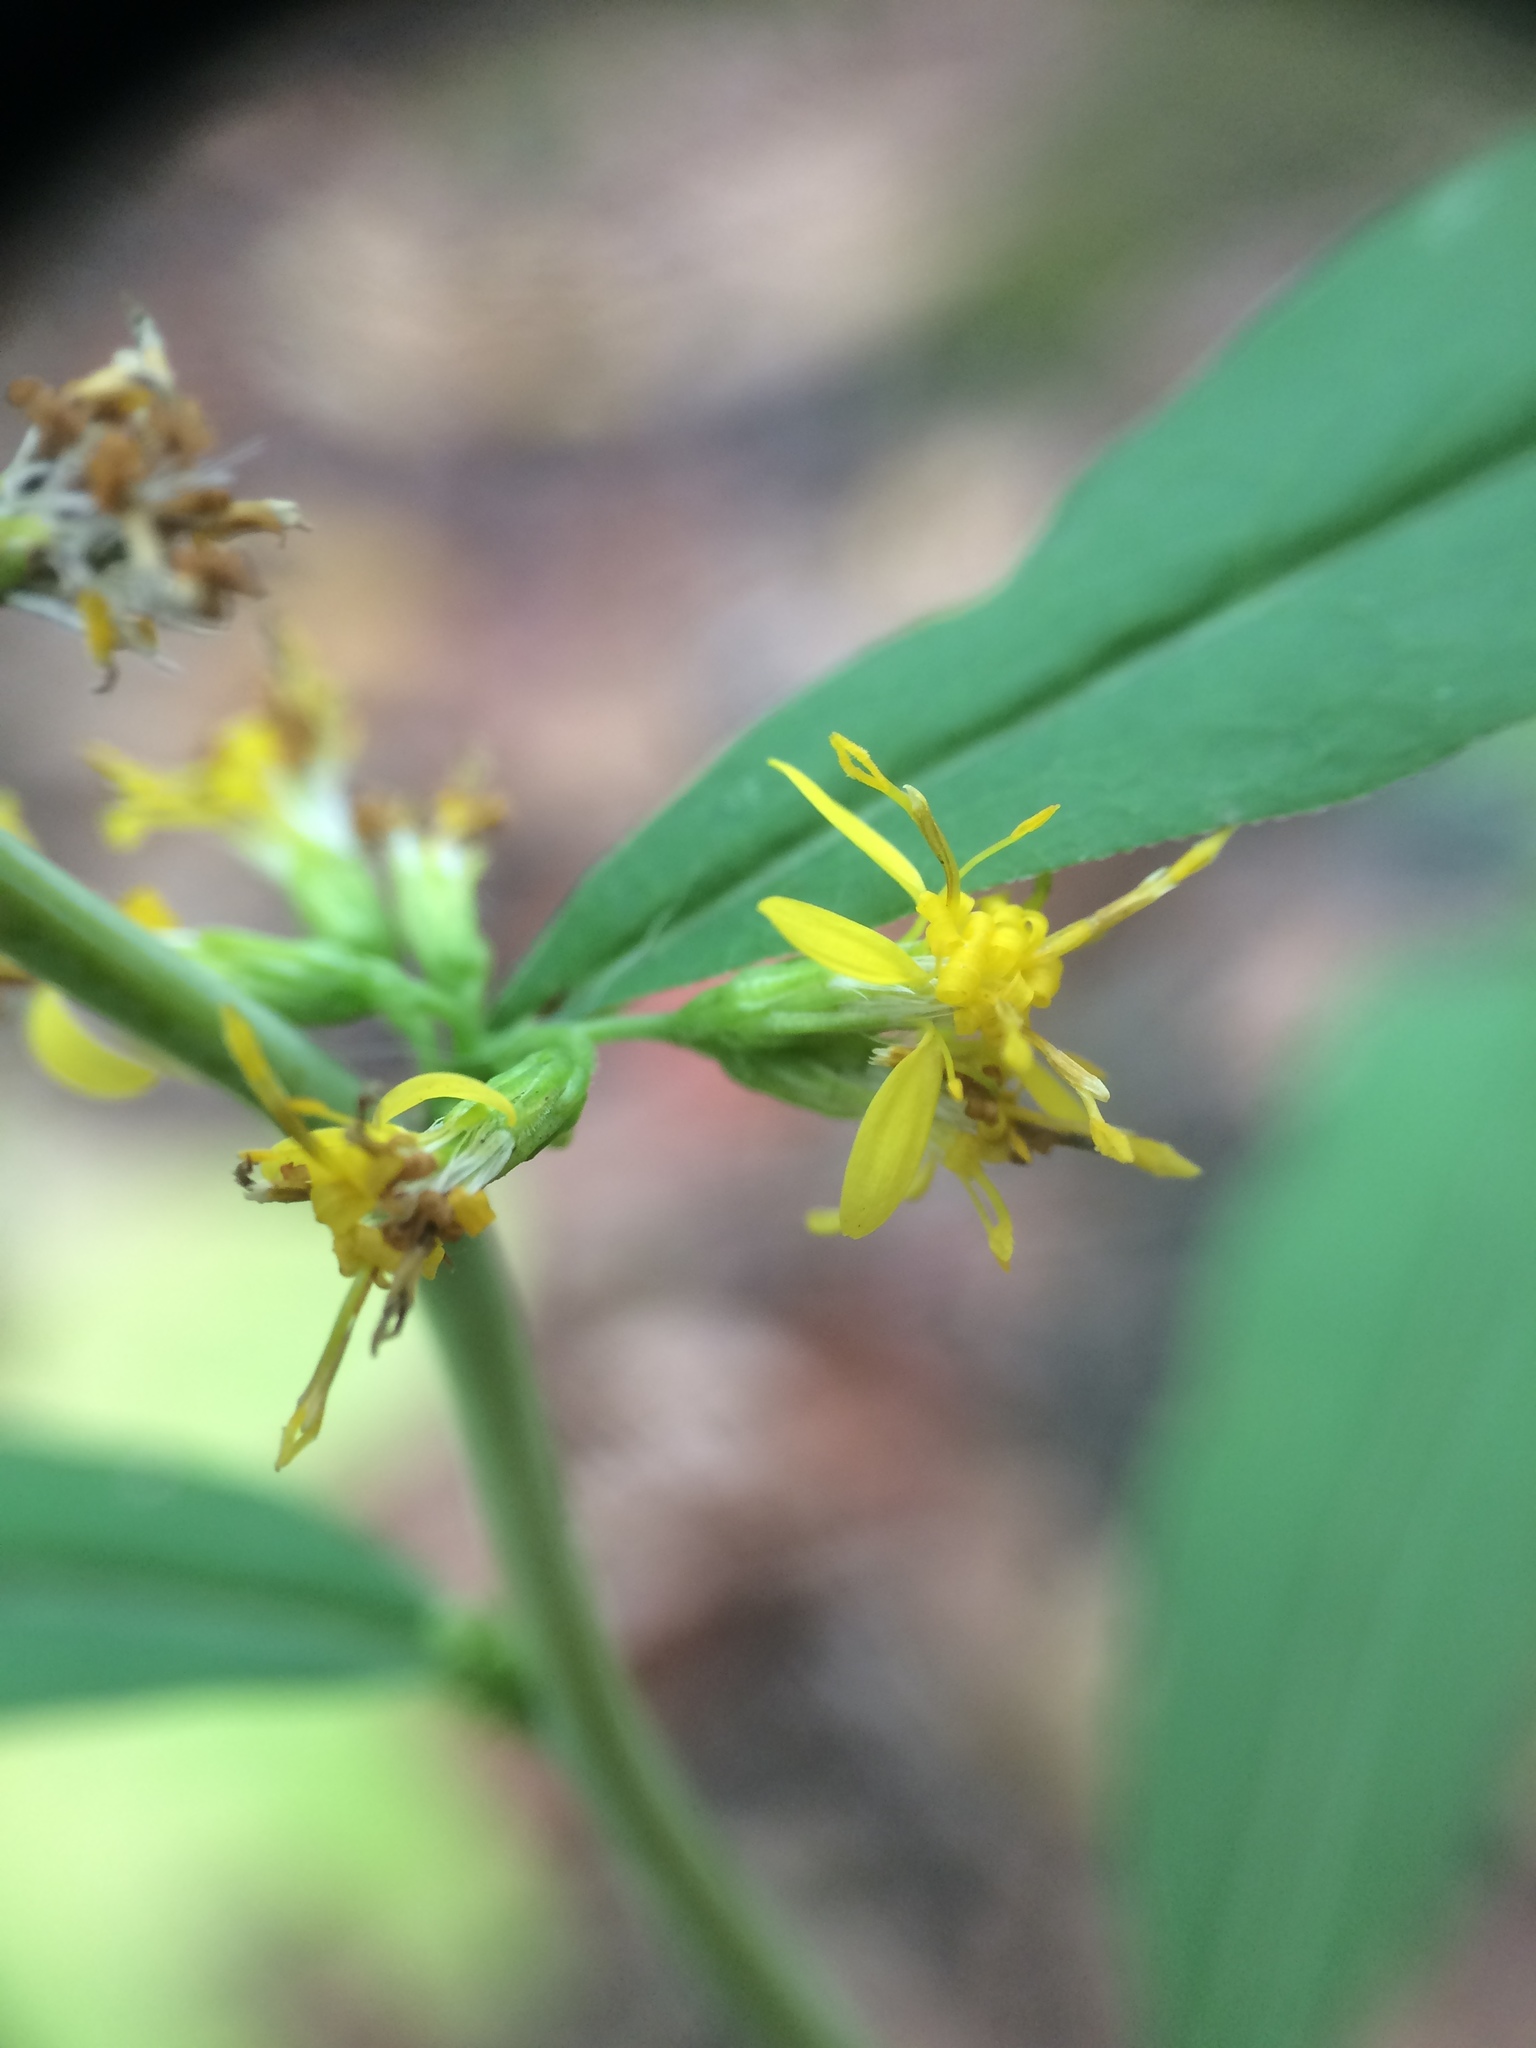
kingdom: Plantae
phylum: Tracheophyta
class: Magnoliopsida
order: Asterales
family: Asteraceae
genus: Solidago
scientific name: Solidago caesia
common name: Woodland goldenrod
